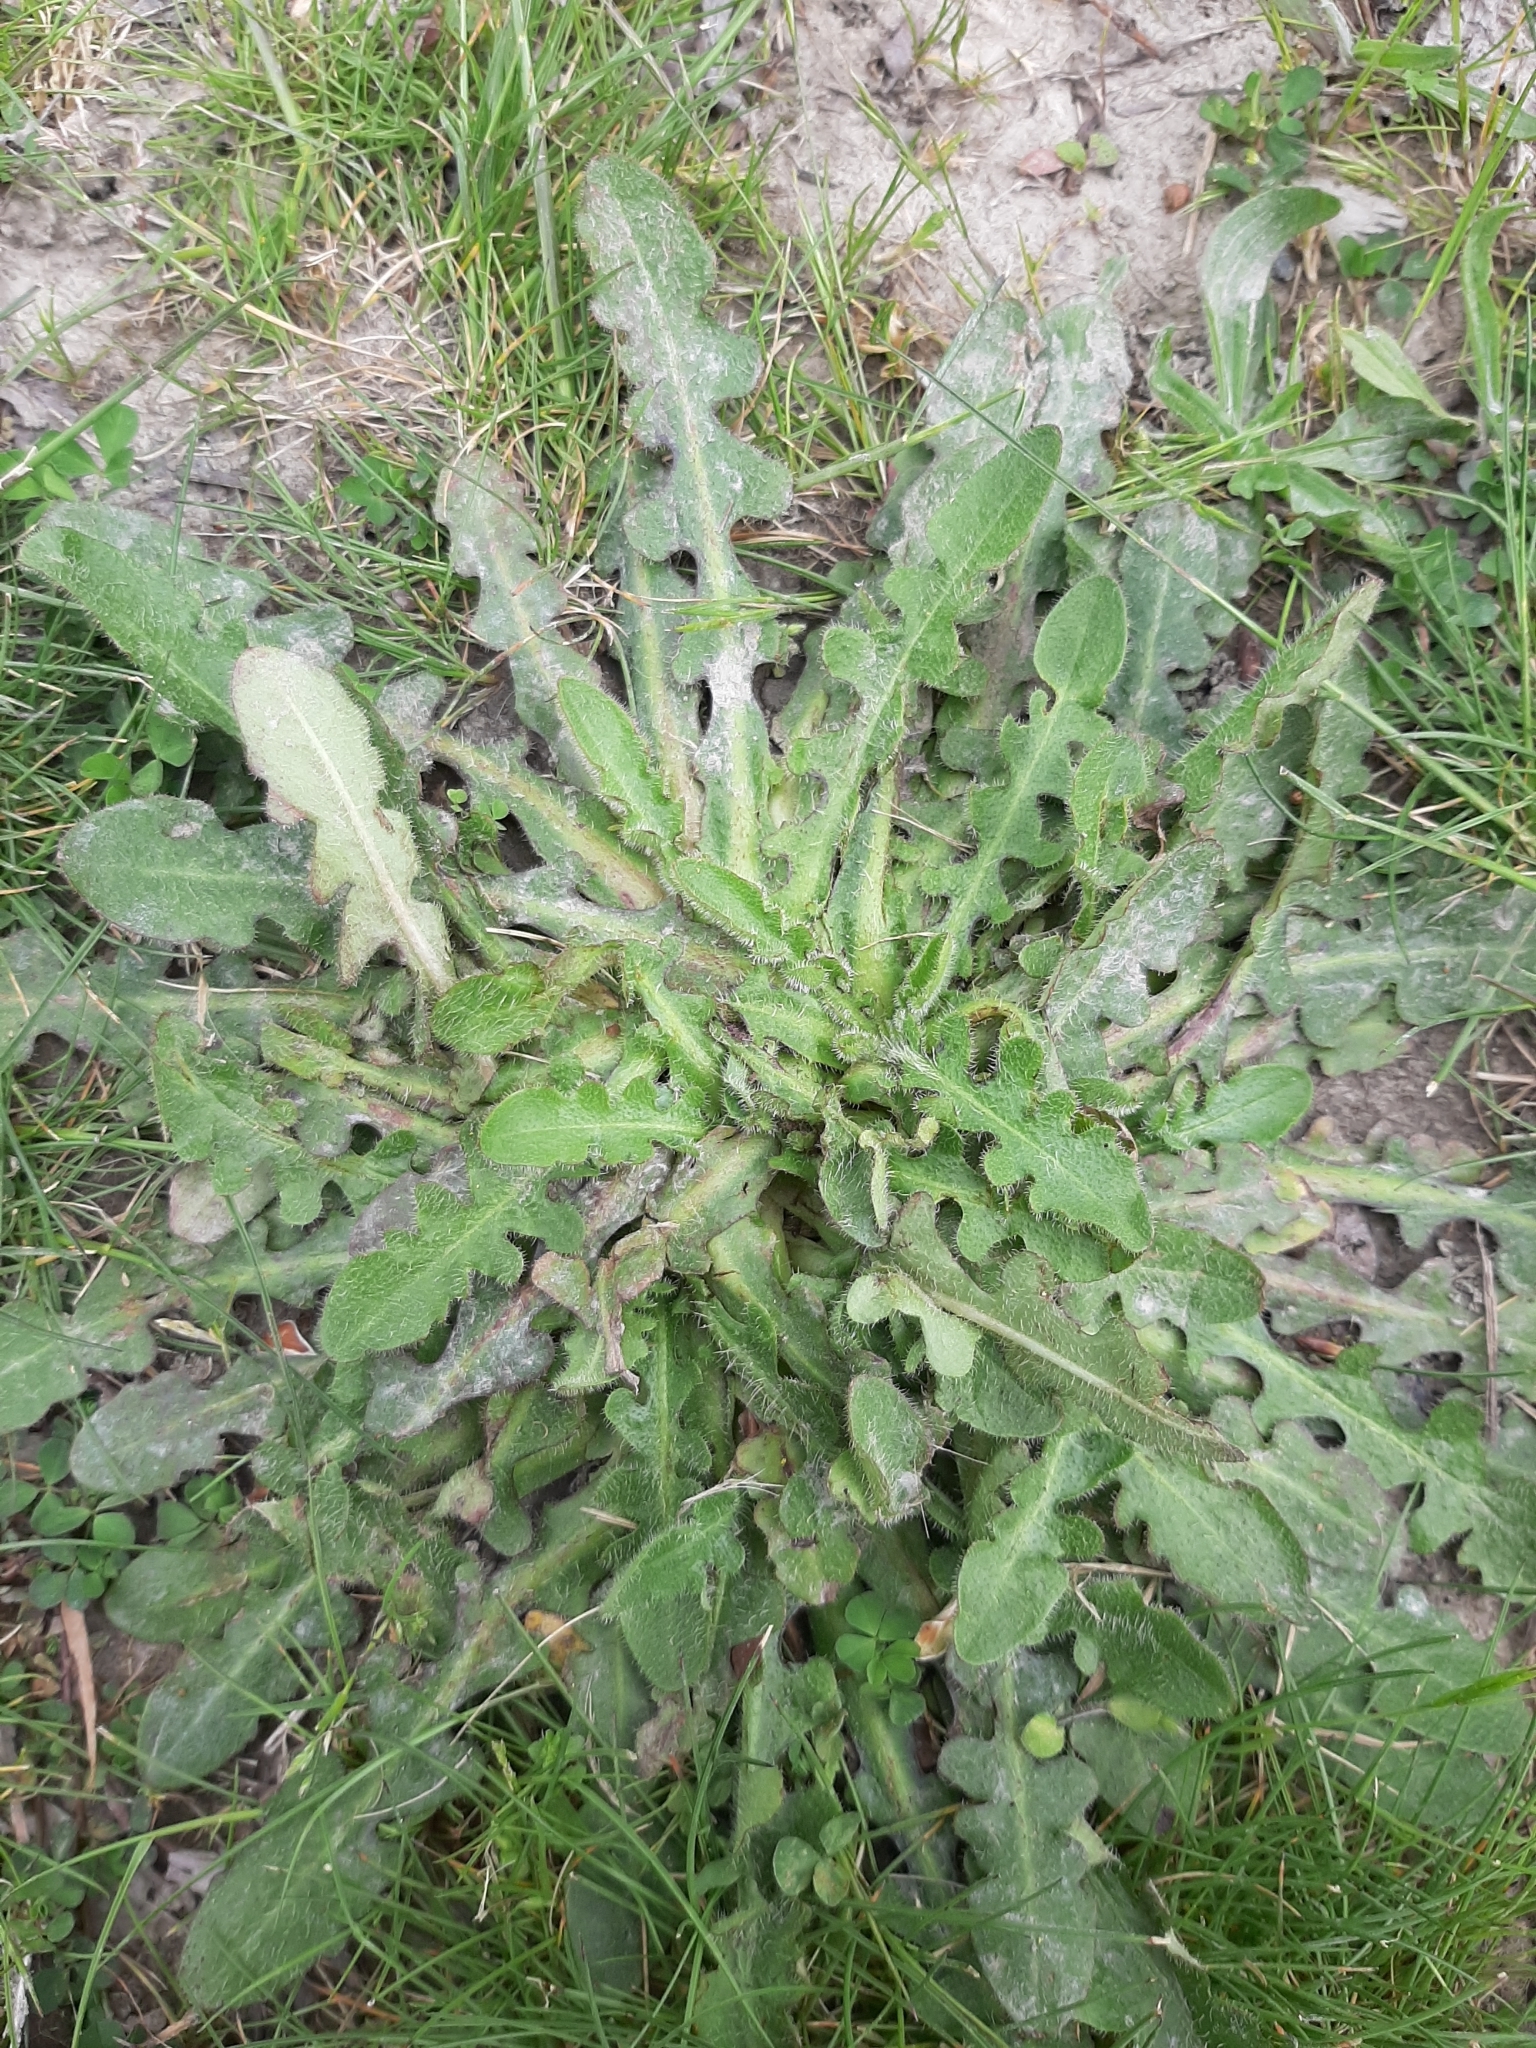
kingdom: Plantae
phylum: Tracheophyta
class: Magnoliopsida
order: Asterales
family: Asteraceae
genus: Hypochaeris
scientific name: Hypochaeris radicata
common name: Flatweed
